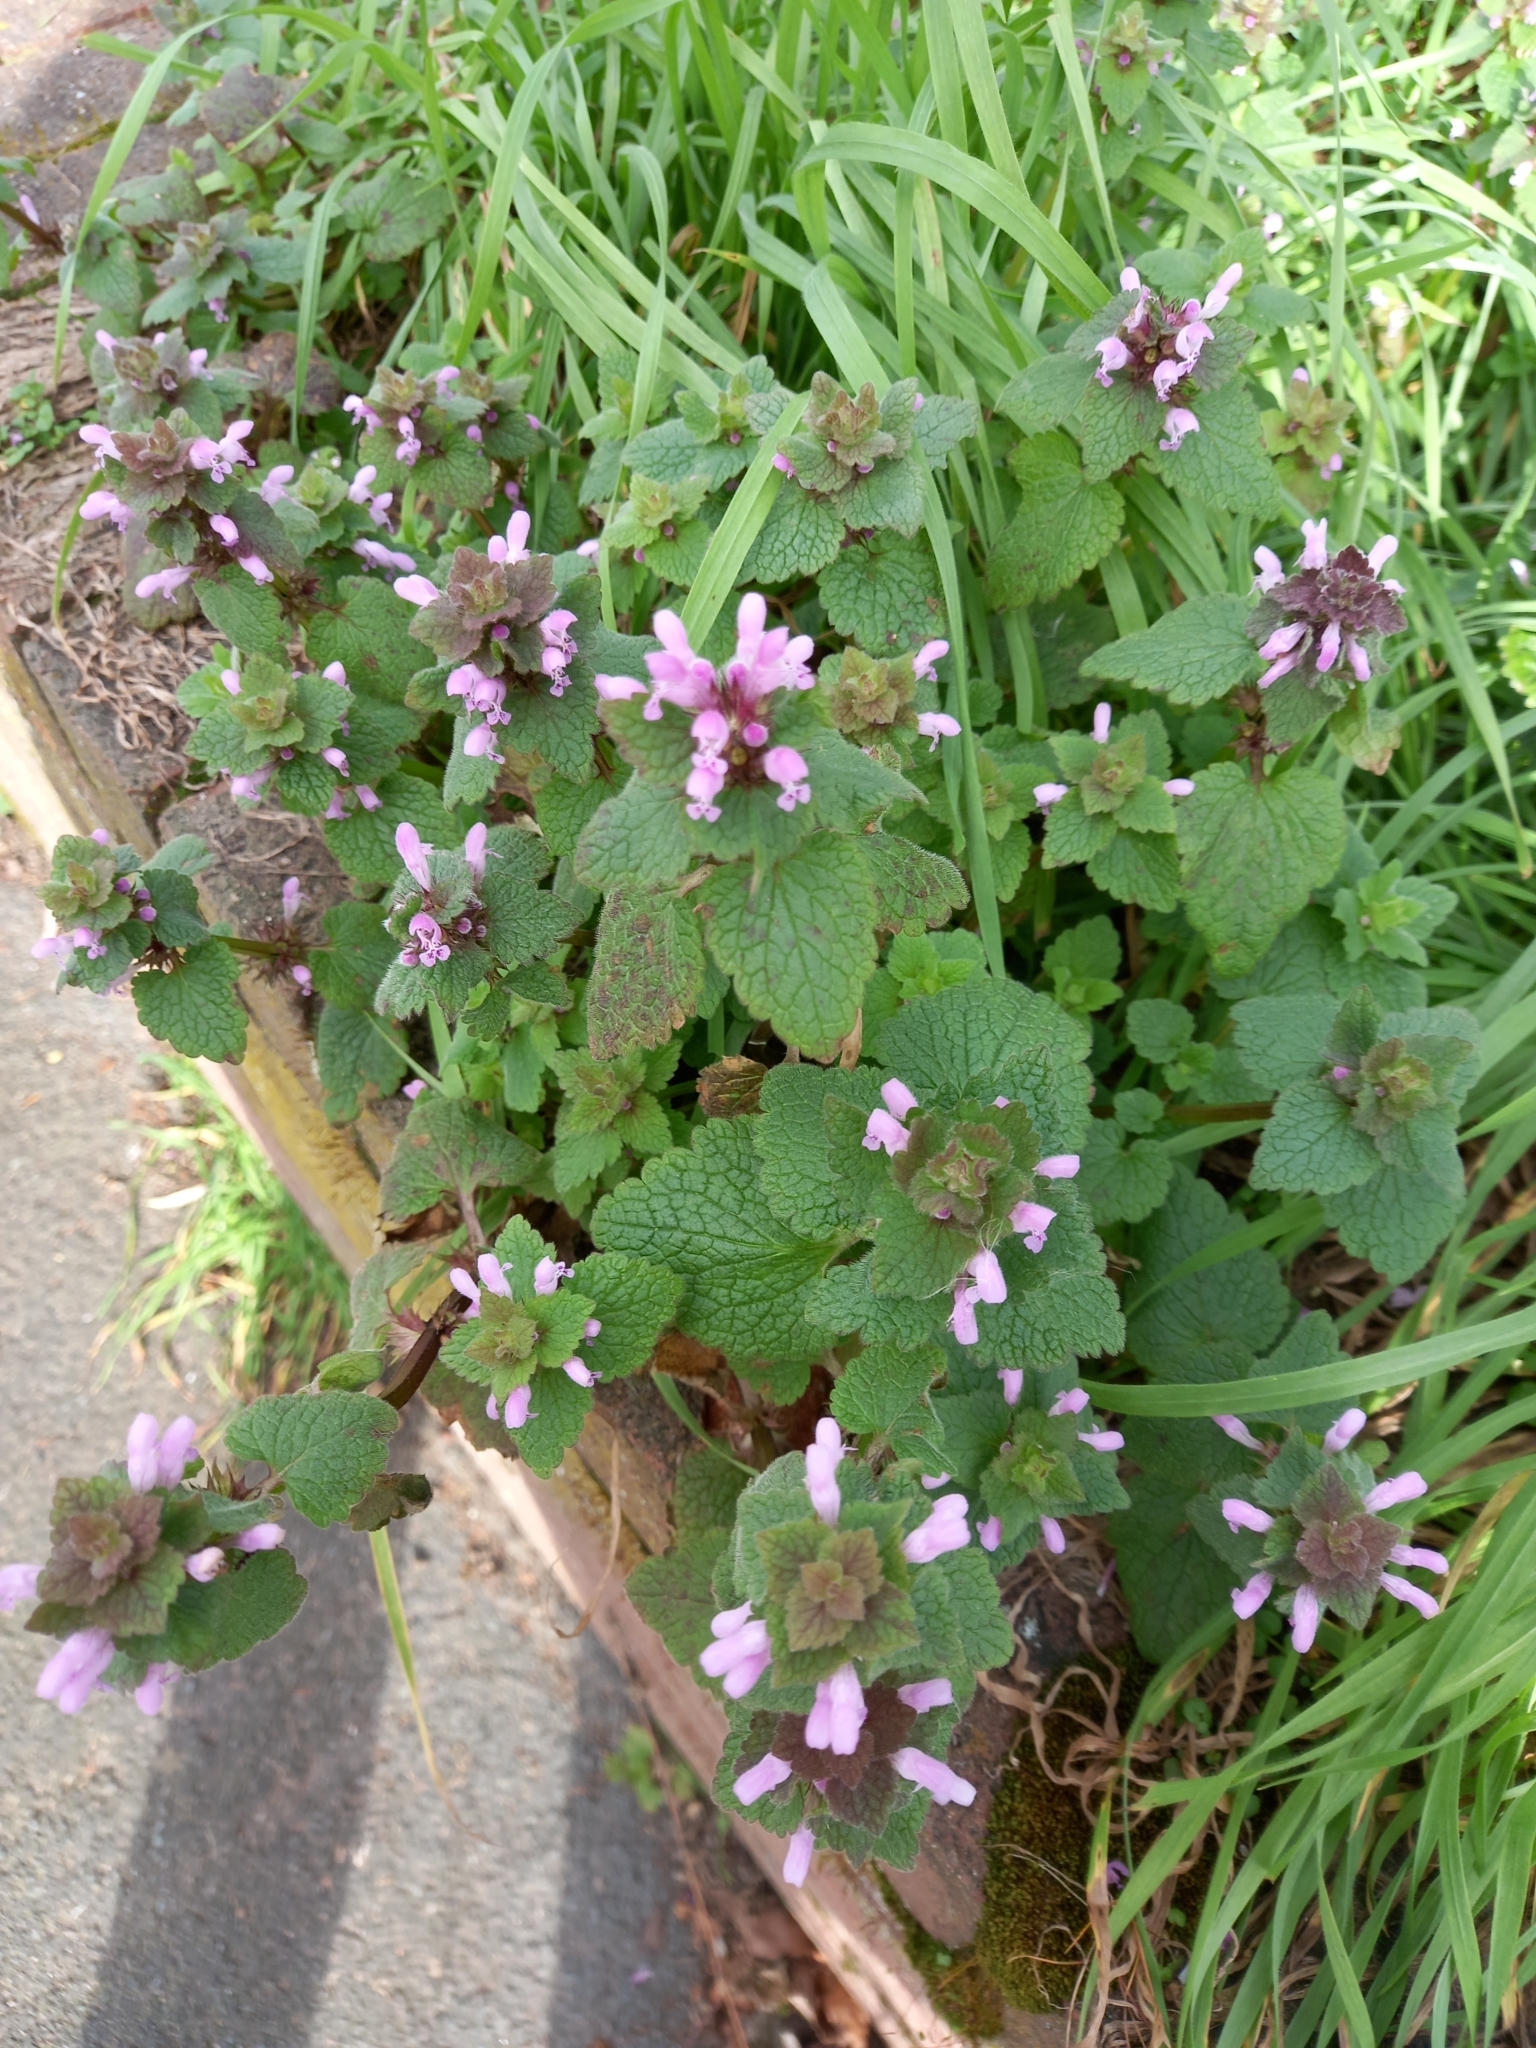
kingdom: Plantae
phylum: Tracheophyta
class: Magnoliopsida
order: Lamiales
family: Lamiaceae
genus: Lamium
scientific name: Lamium purpureum
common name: Red dead-nettle
